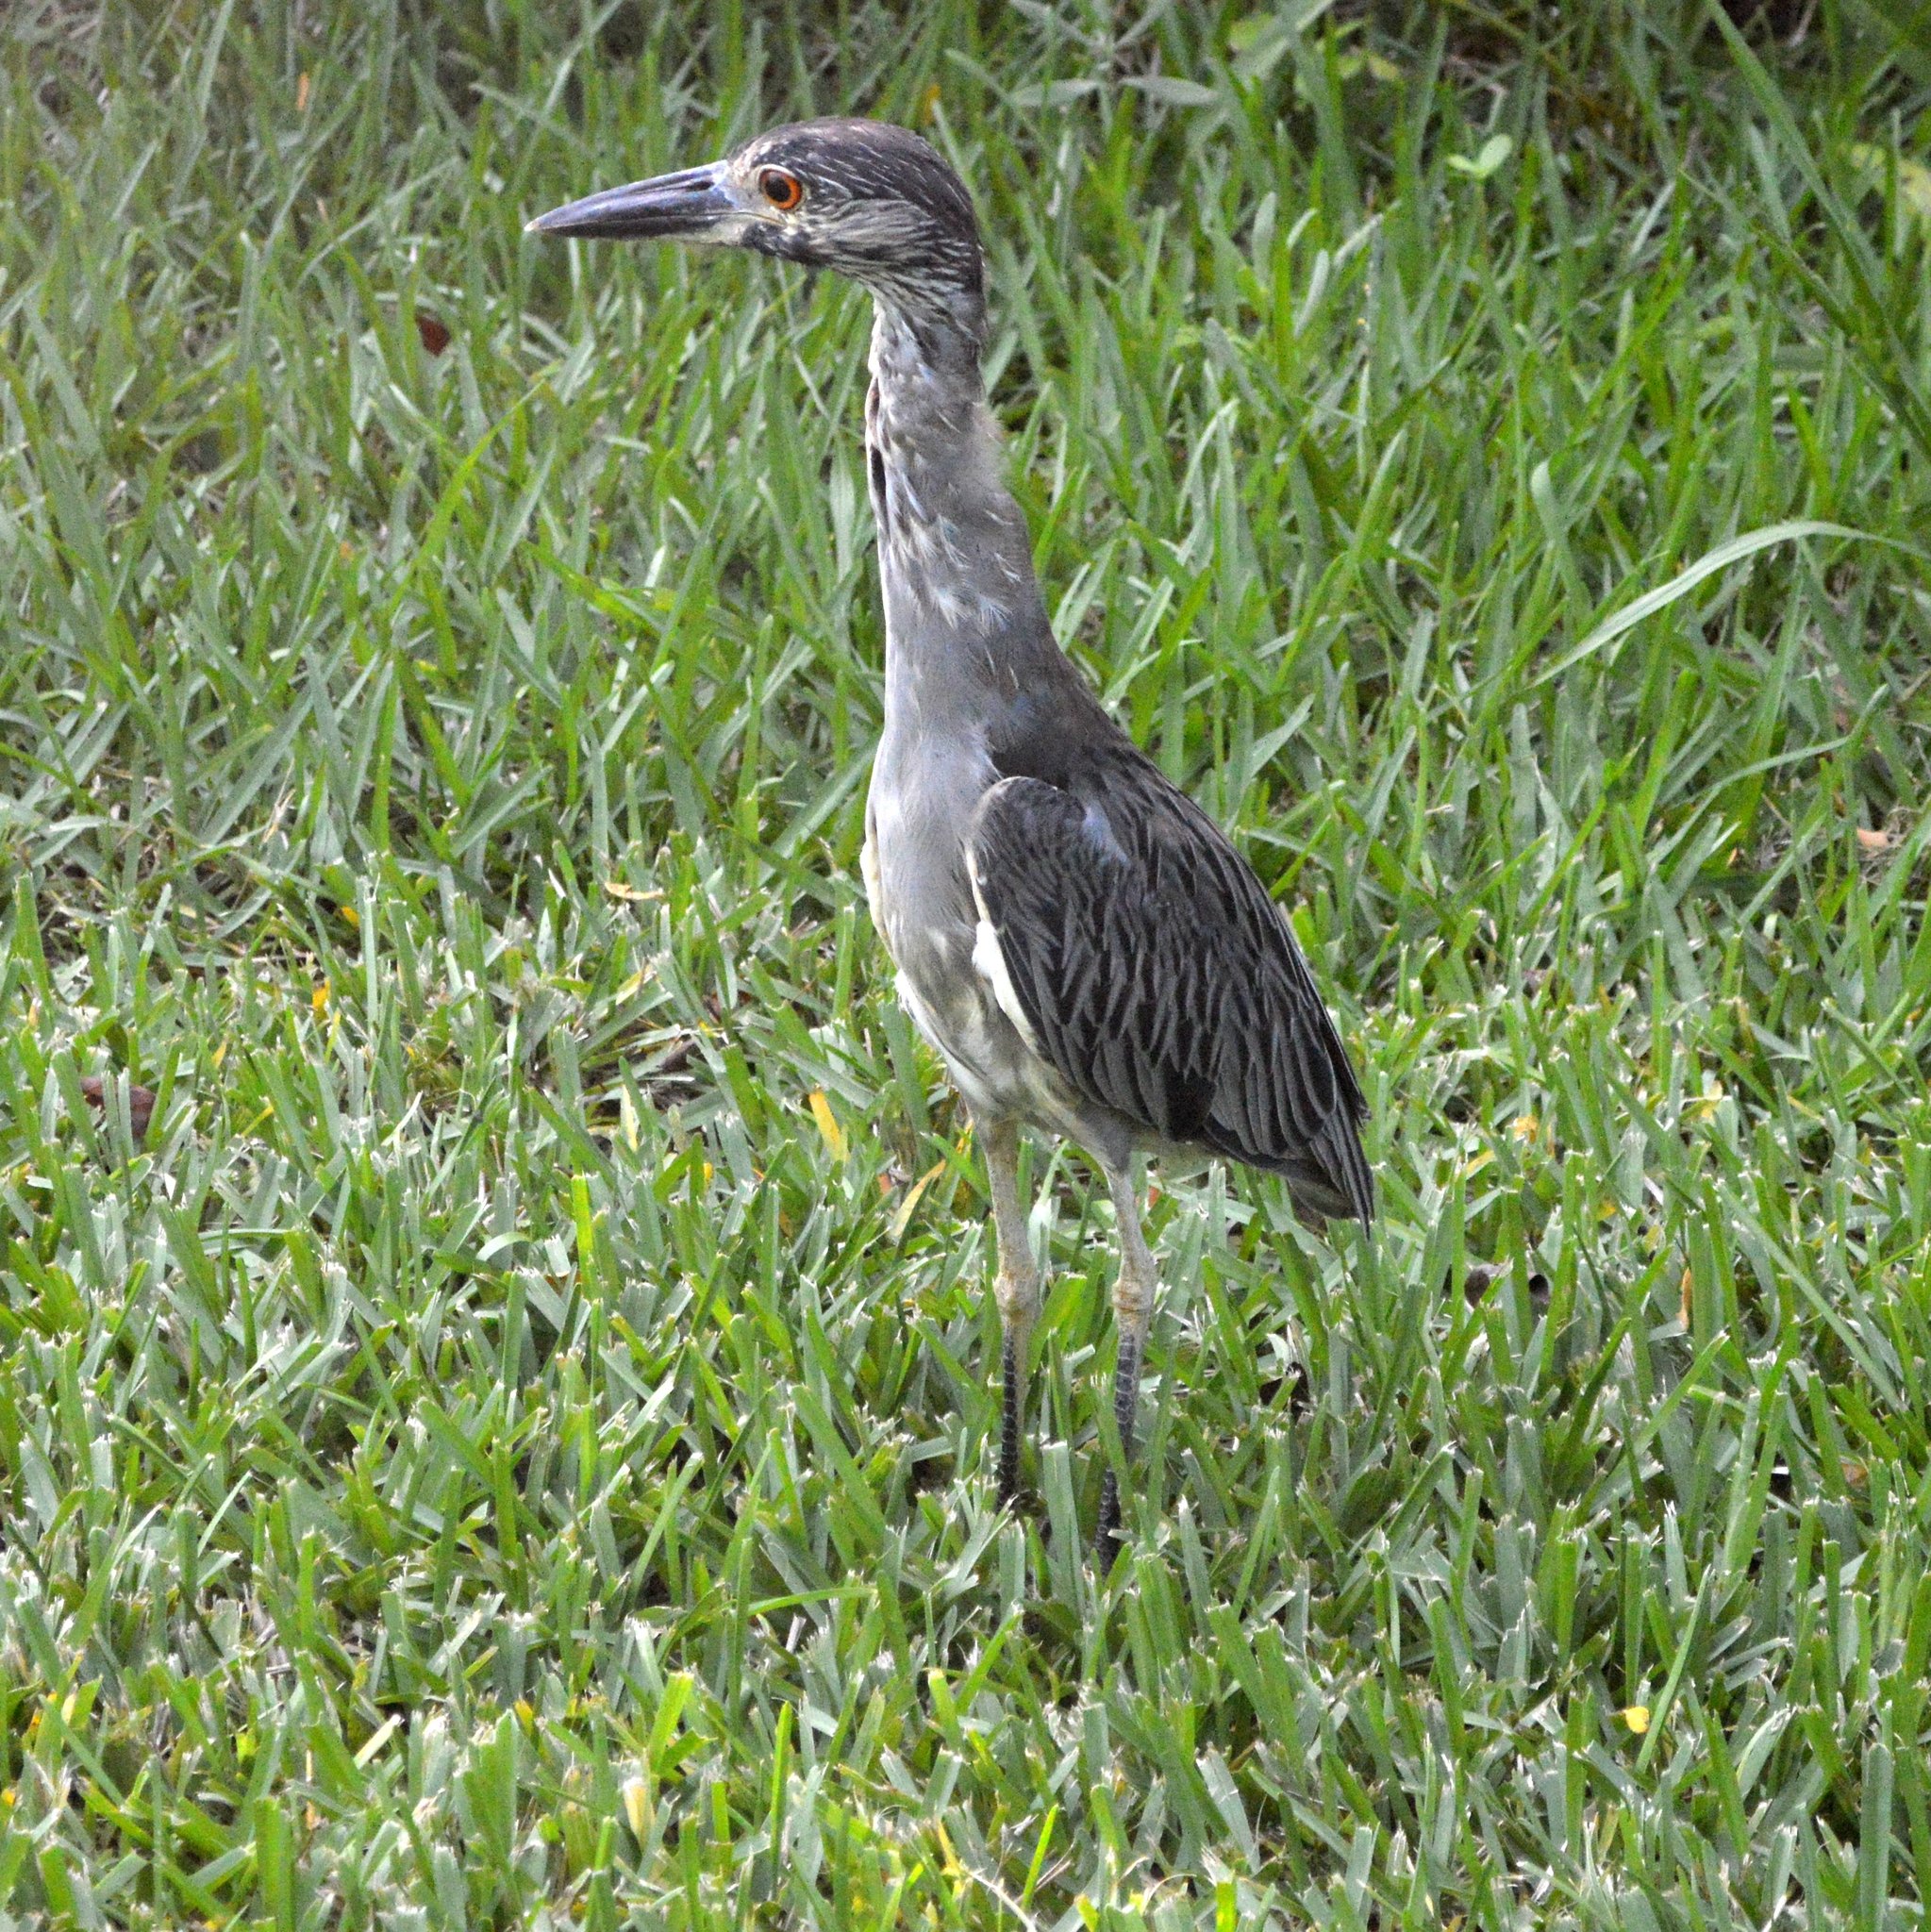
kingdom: Animalia
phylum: Chordata
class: Aves
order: Pelecaniformes
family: Ardeidae
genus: Nyctanassa
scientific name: Nyctanassa violacea
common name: Yellow-crowned night heron
